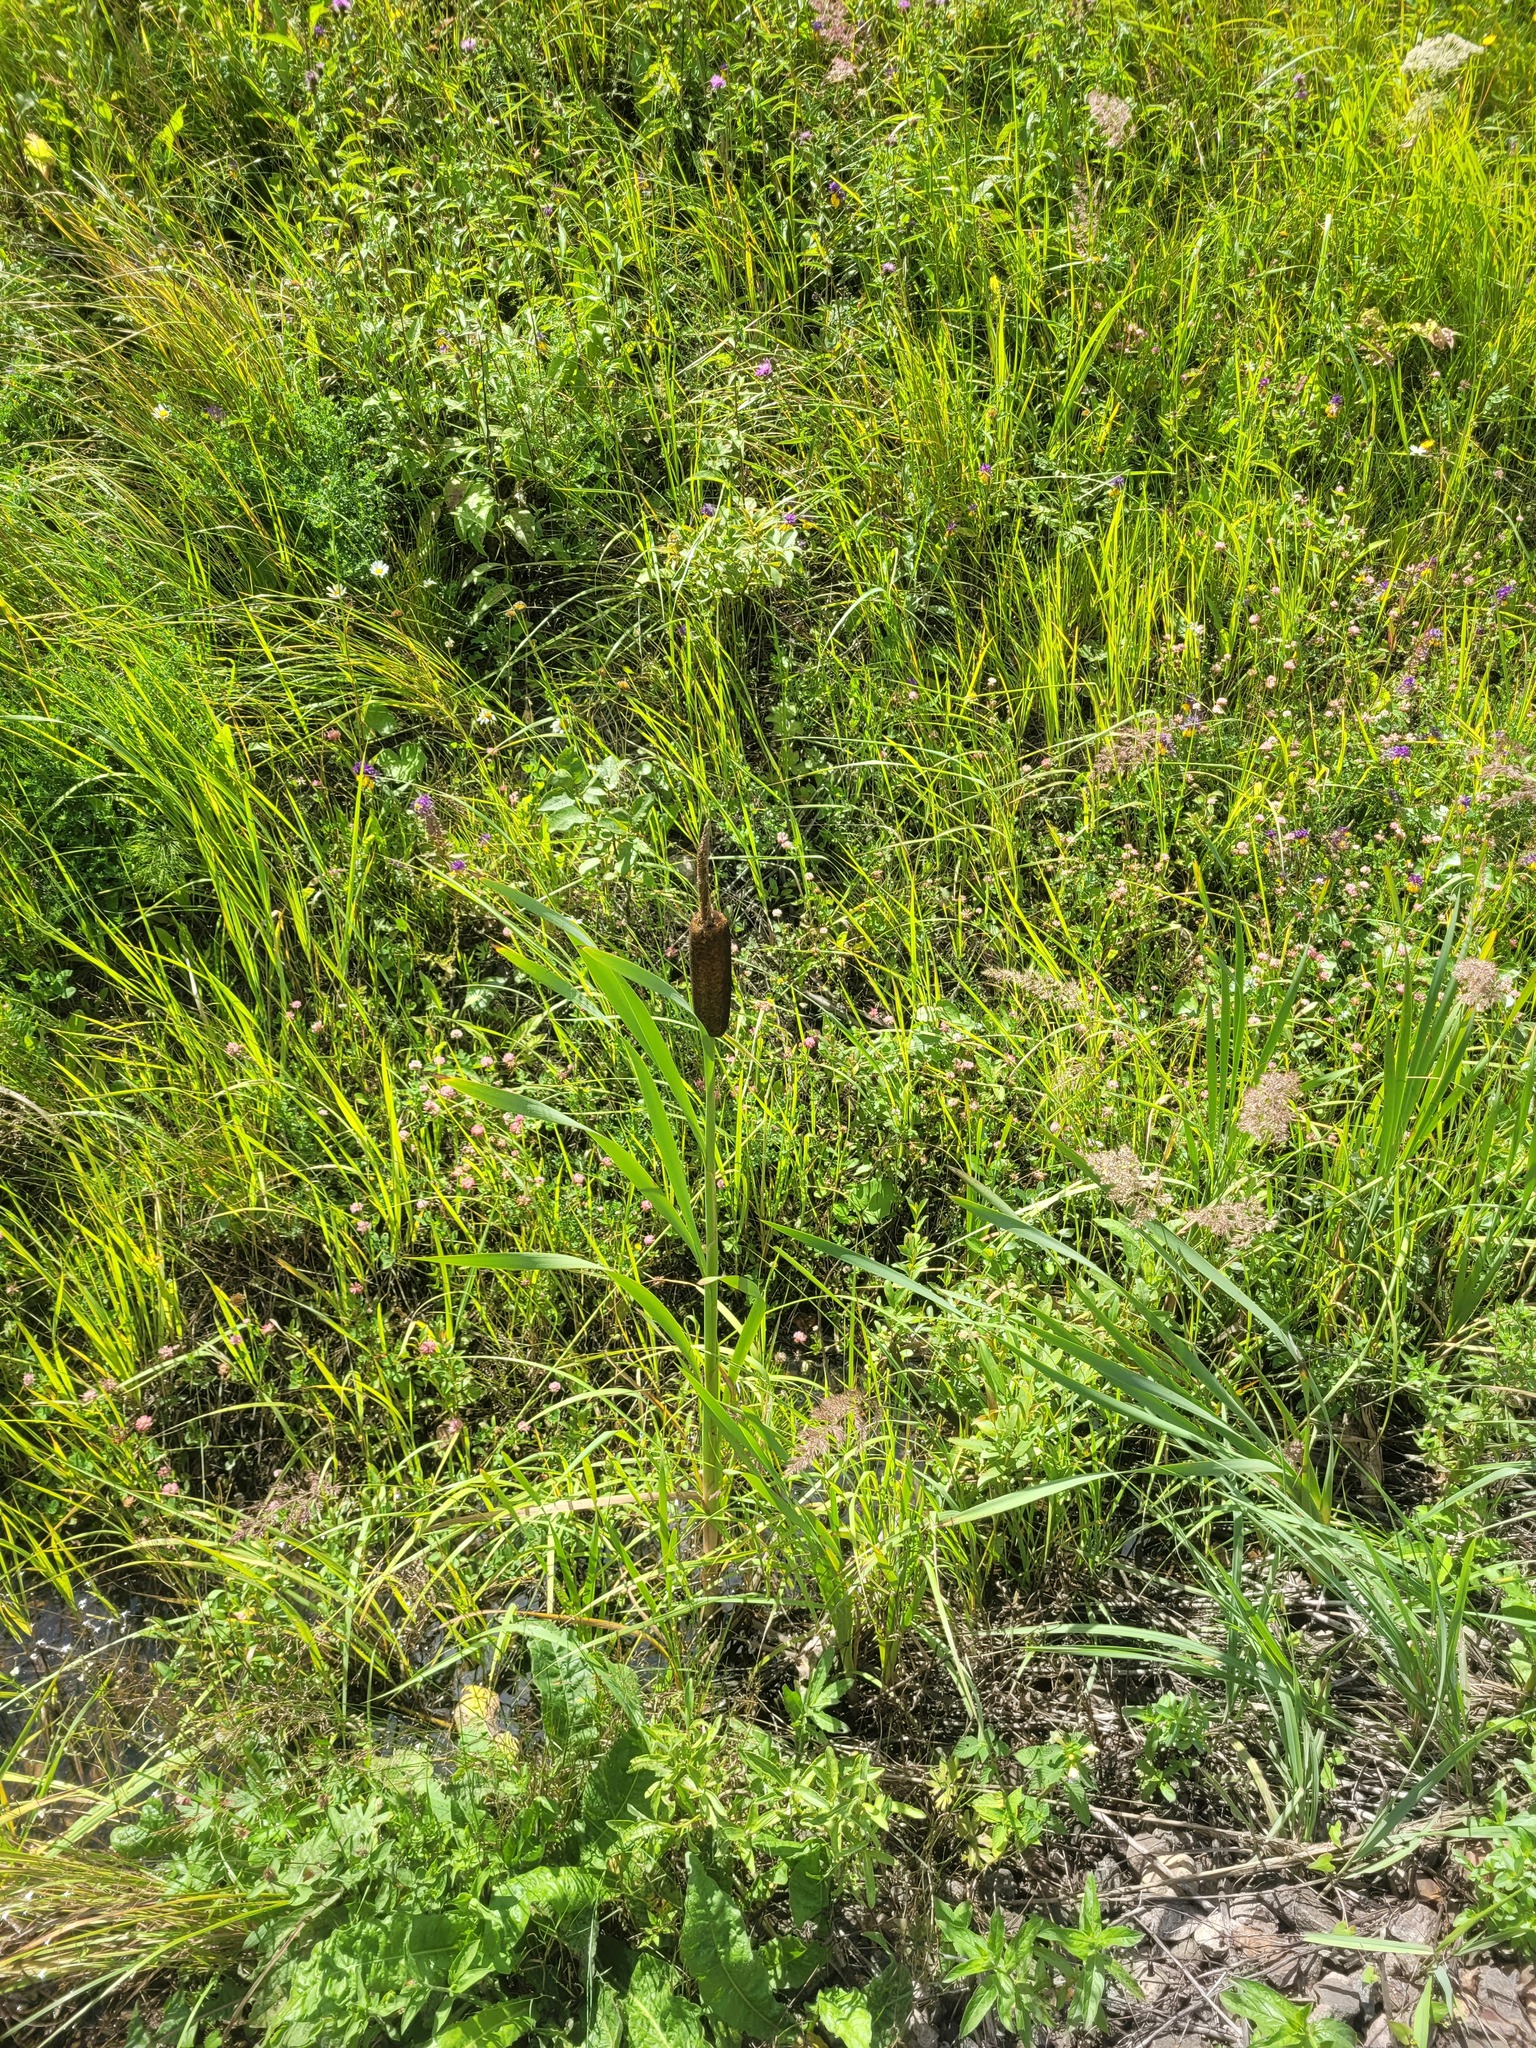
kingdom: Plantae
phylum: Tracheophyta
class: Liliopsida
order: Poales
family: Typhaceae
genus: Typha
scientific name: Typha latifolia
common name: Broadleaf cattail
